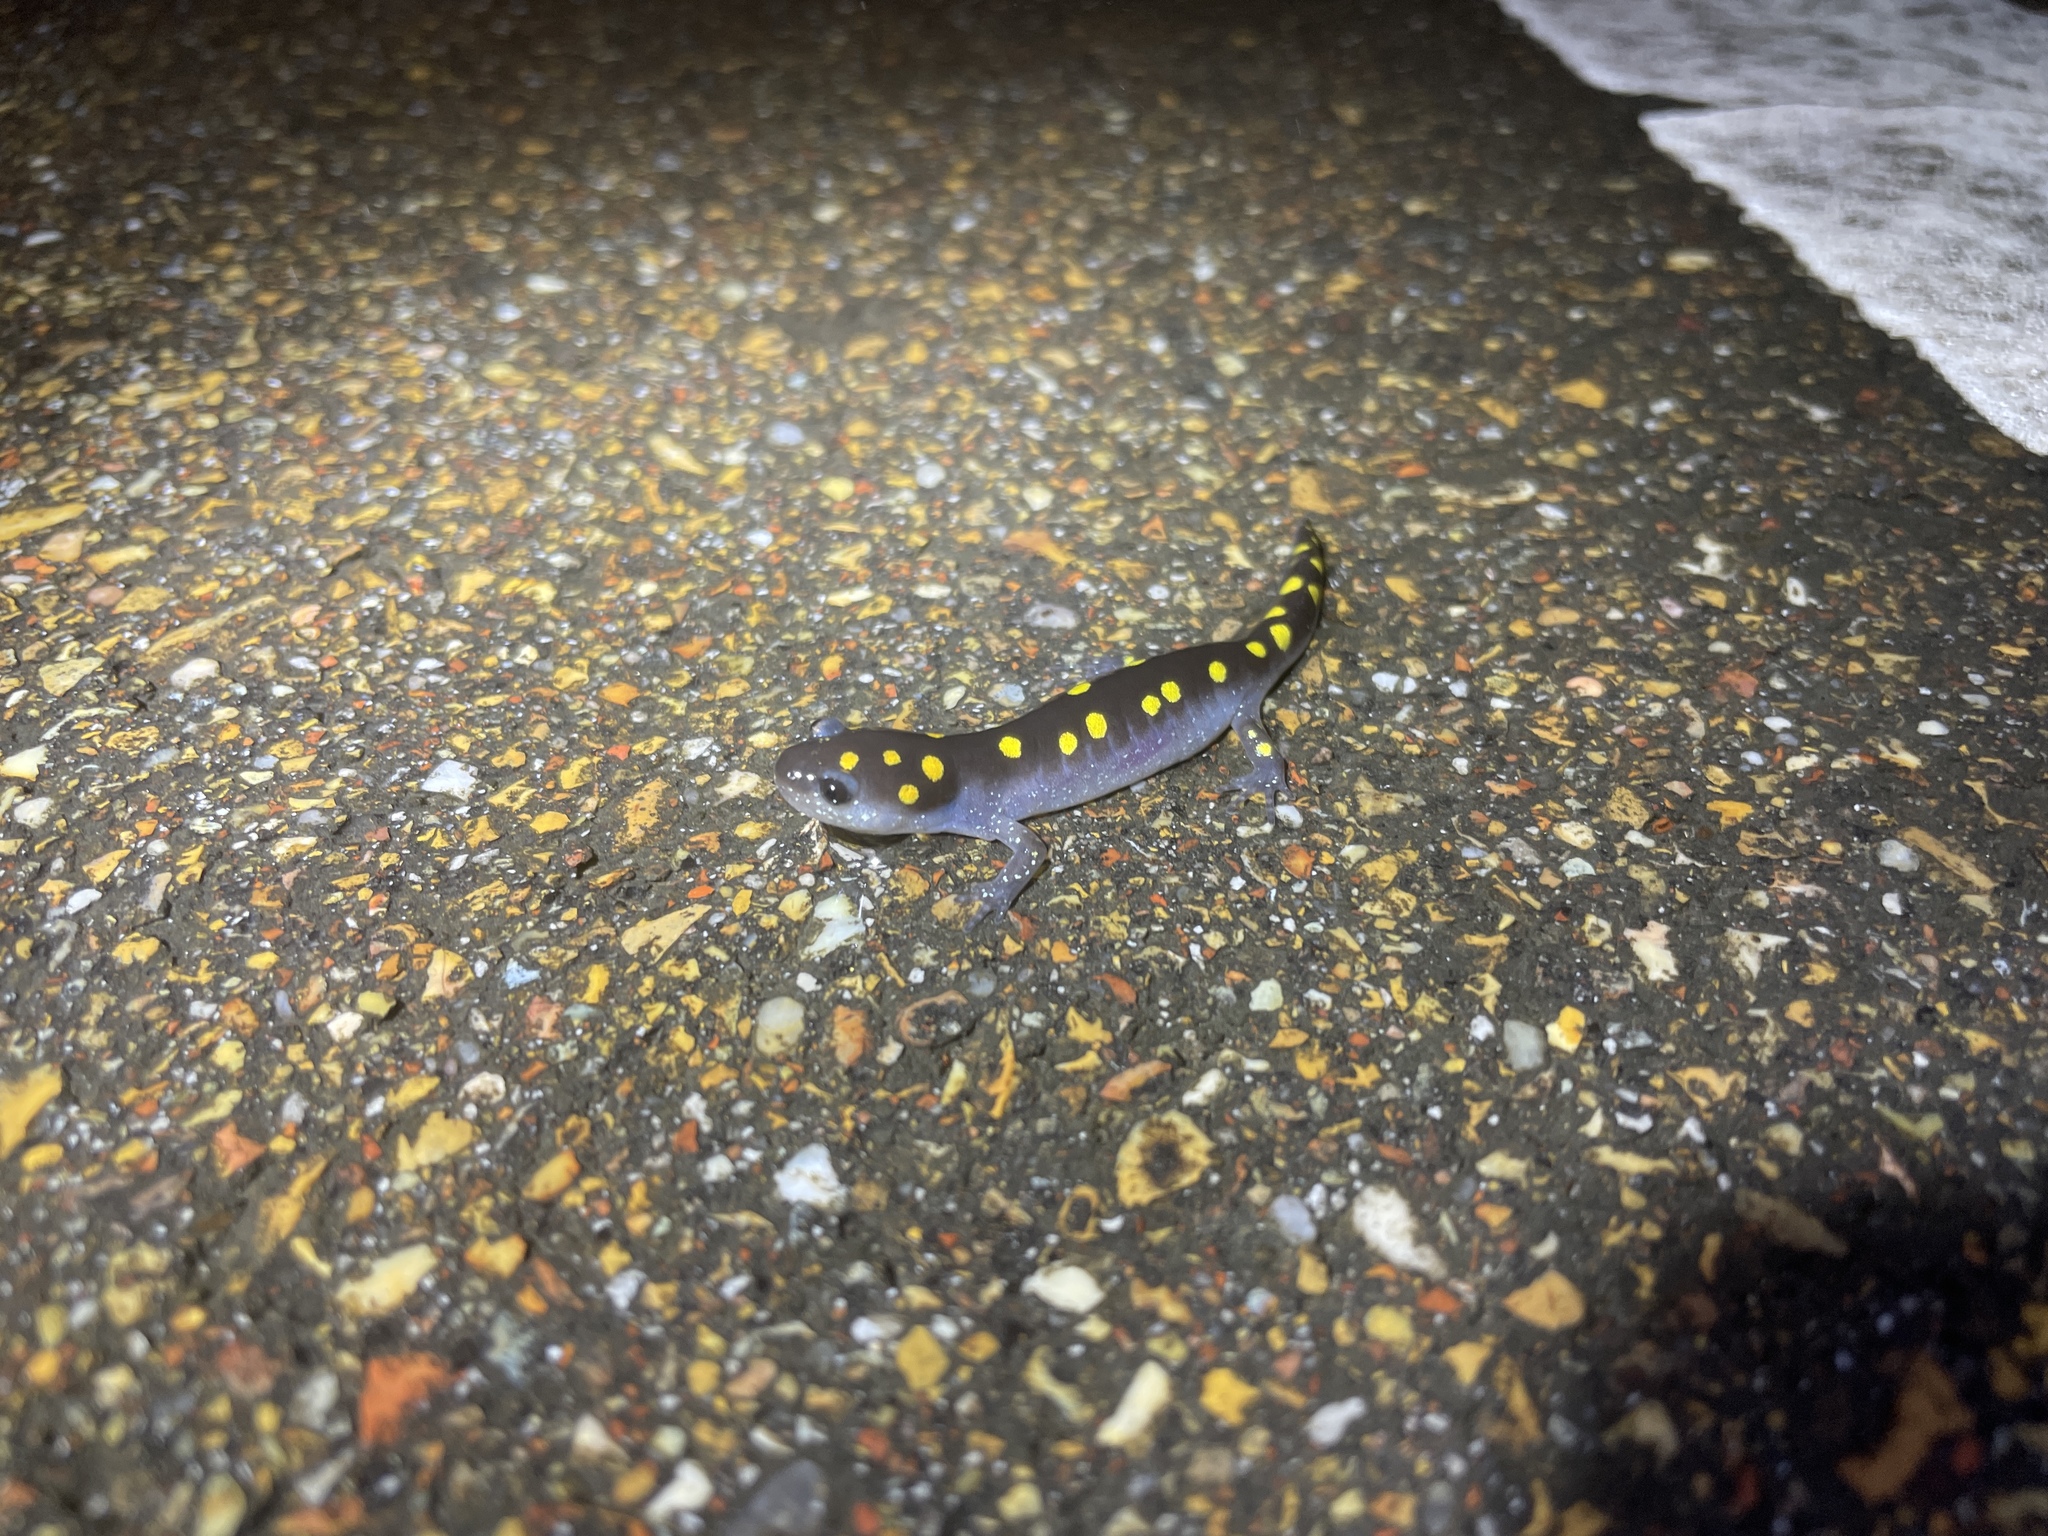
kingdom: Animalia
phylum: Chordata
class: Amphibia
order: Caudata
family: Ambystomatidae
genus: Ambystoma
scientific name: Ambystoma maculatum
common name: Spotted salamander
